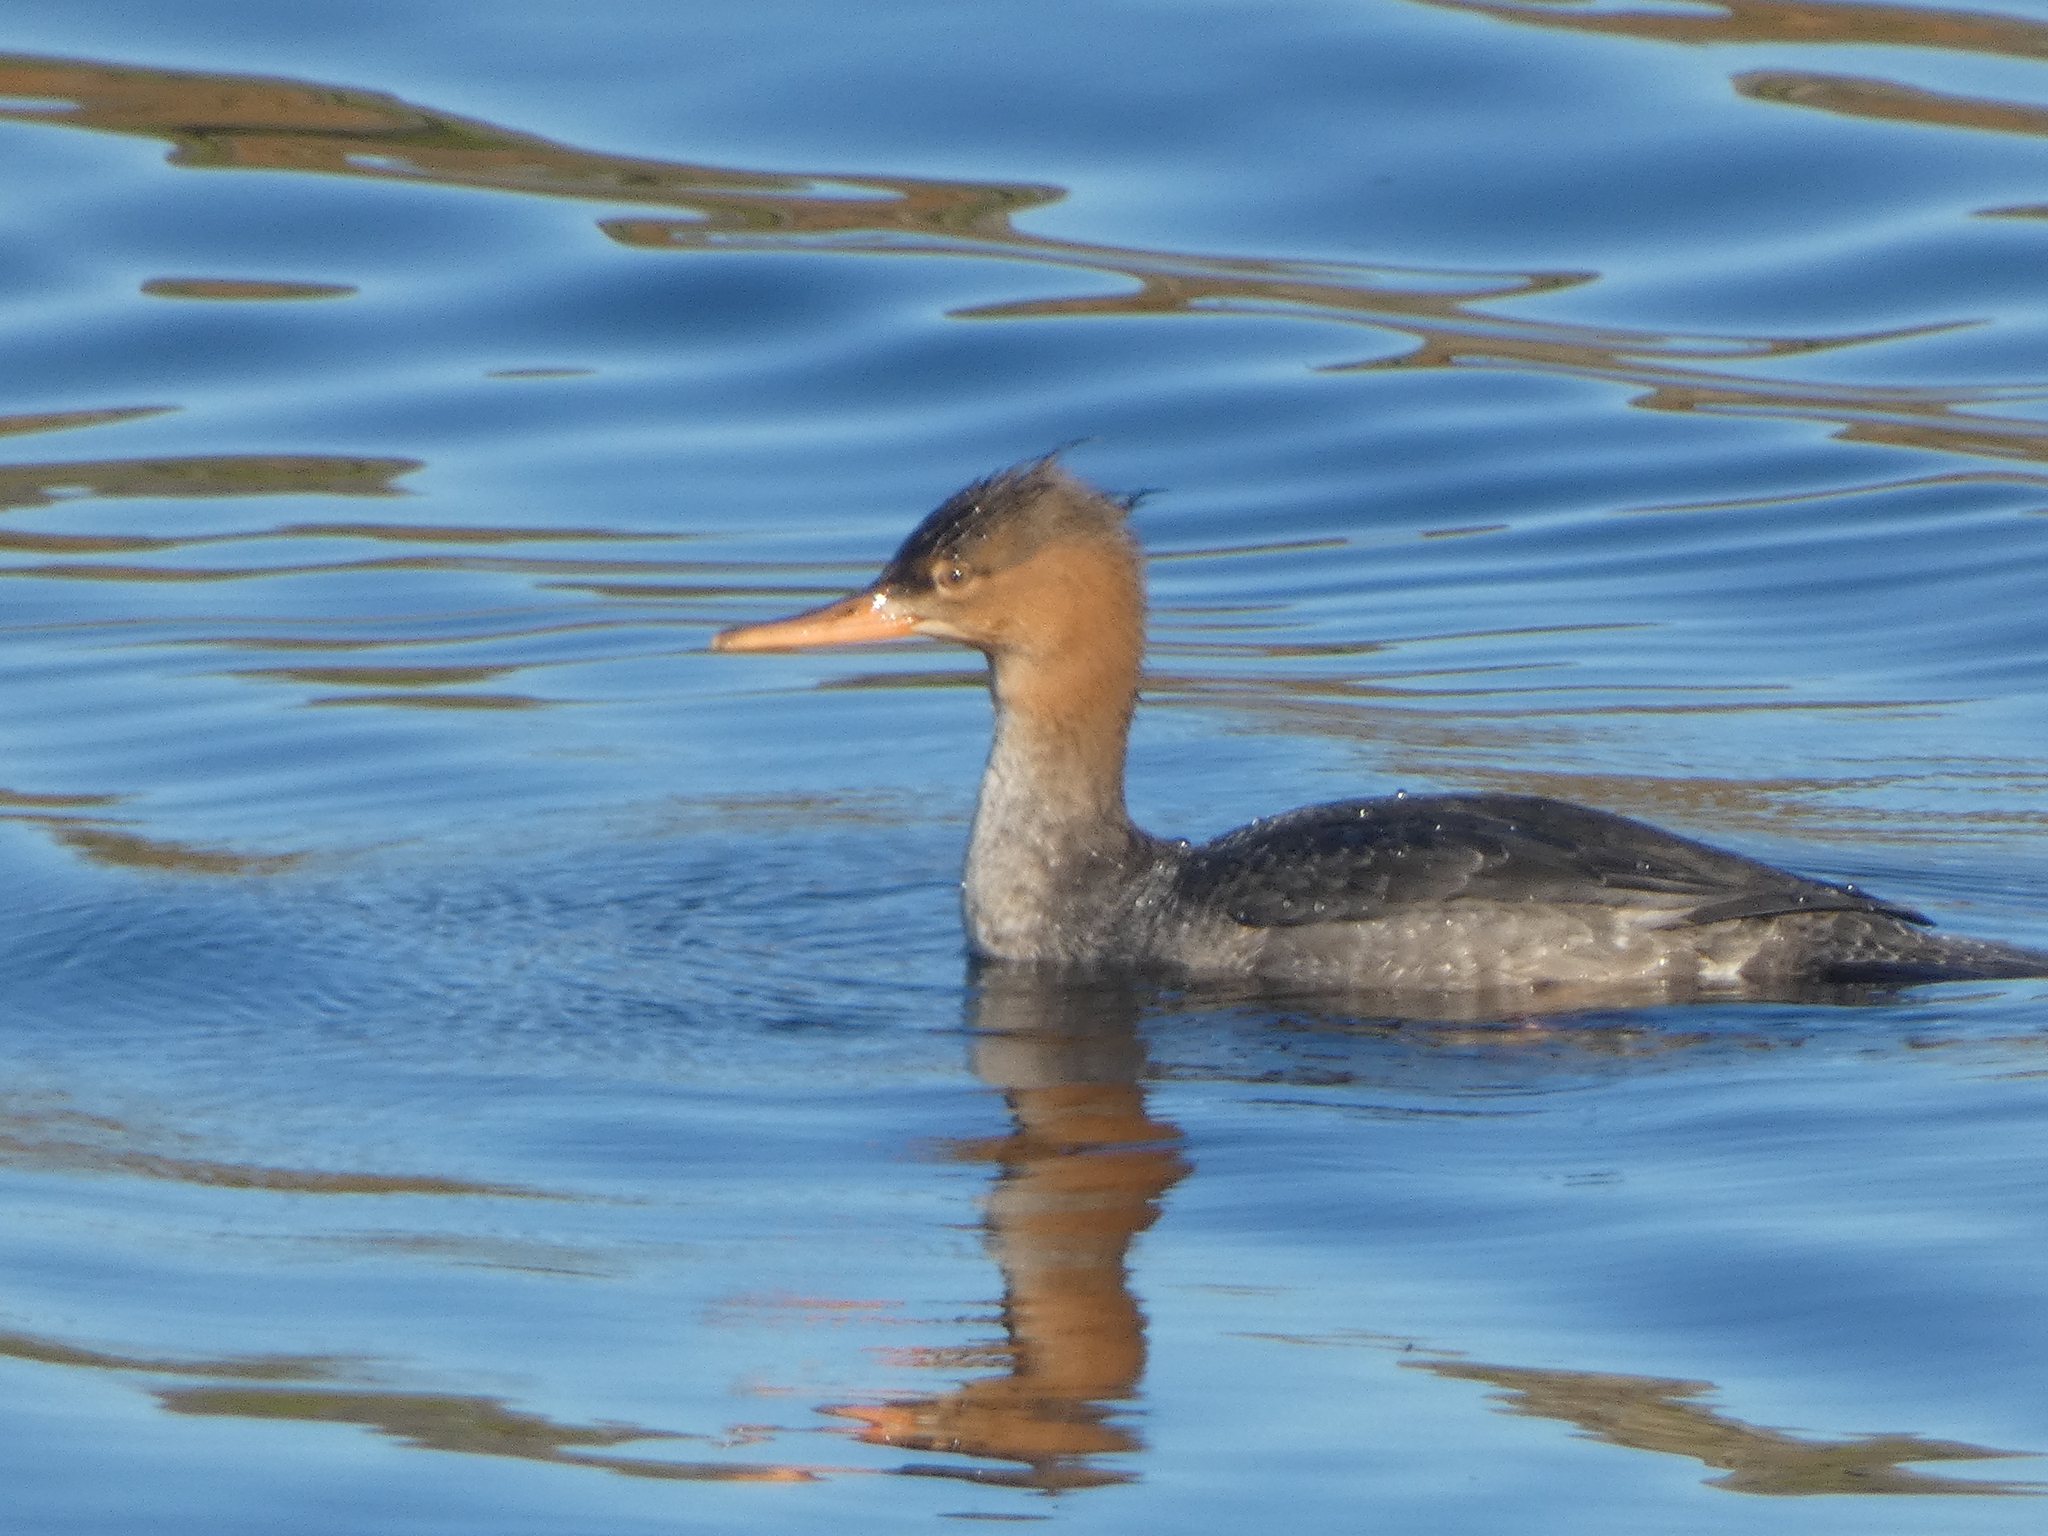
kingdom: Animalia
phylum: Chordata
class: Aves
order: Anseriformes
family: Anatidae
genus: Mergus
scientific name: Mergus serrator
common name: Red-breasted merganser
